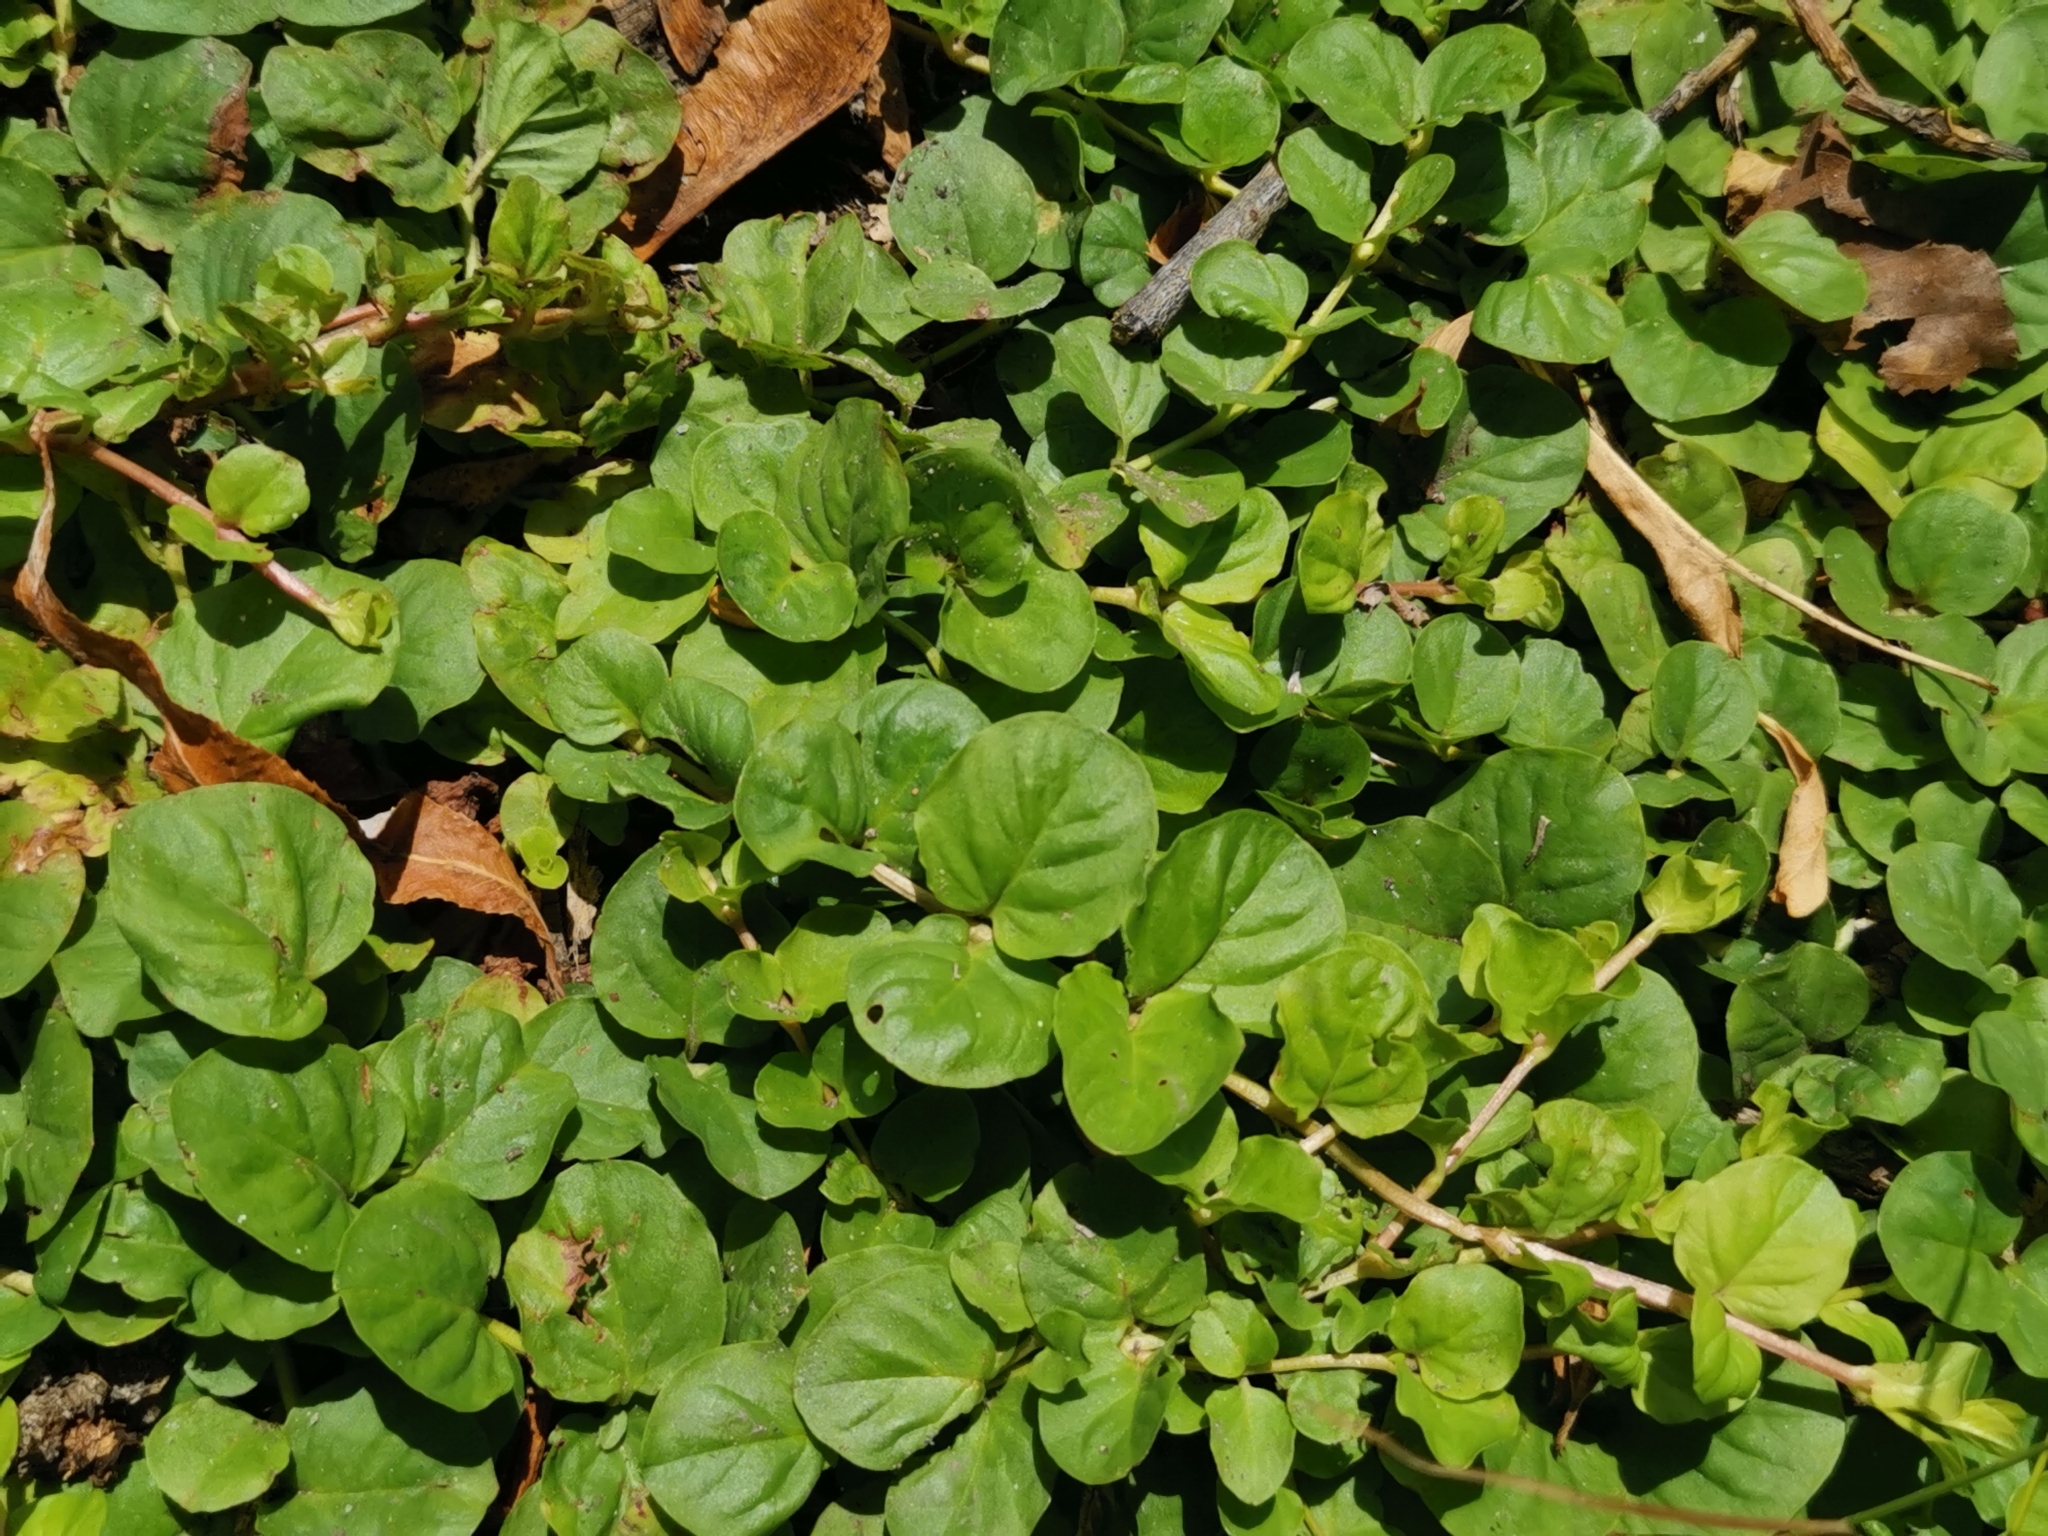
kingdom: Plantae
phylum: Tracheophyta
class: Magnoliopsida
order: Ericales
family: Primulaceae
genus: Lysimachia
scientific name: Lysimachia nummularia
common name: Moneywort
